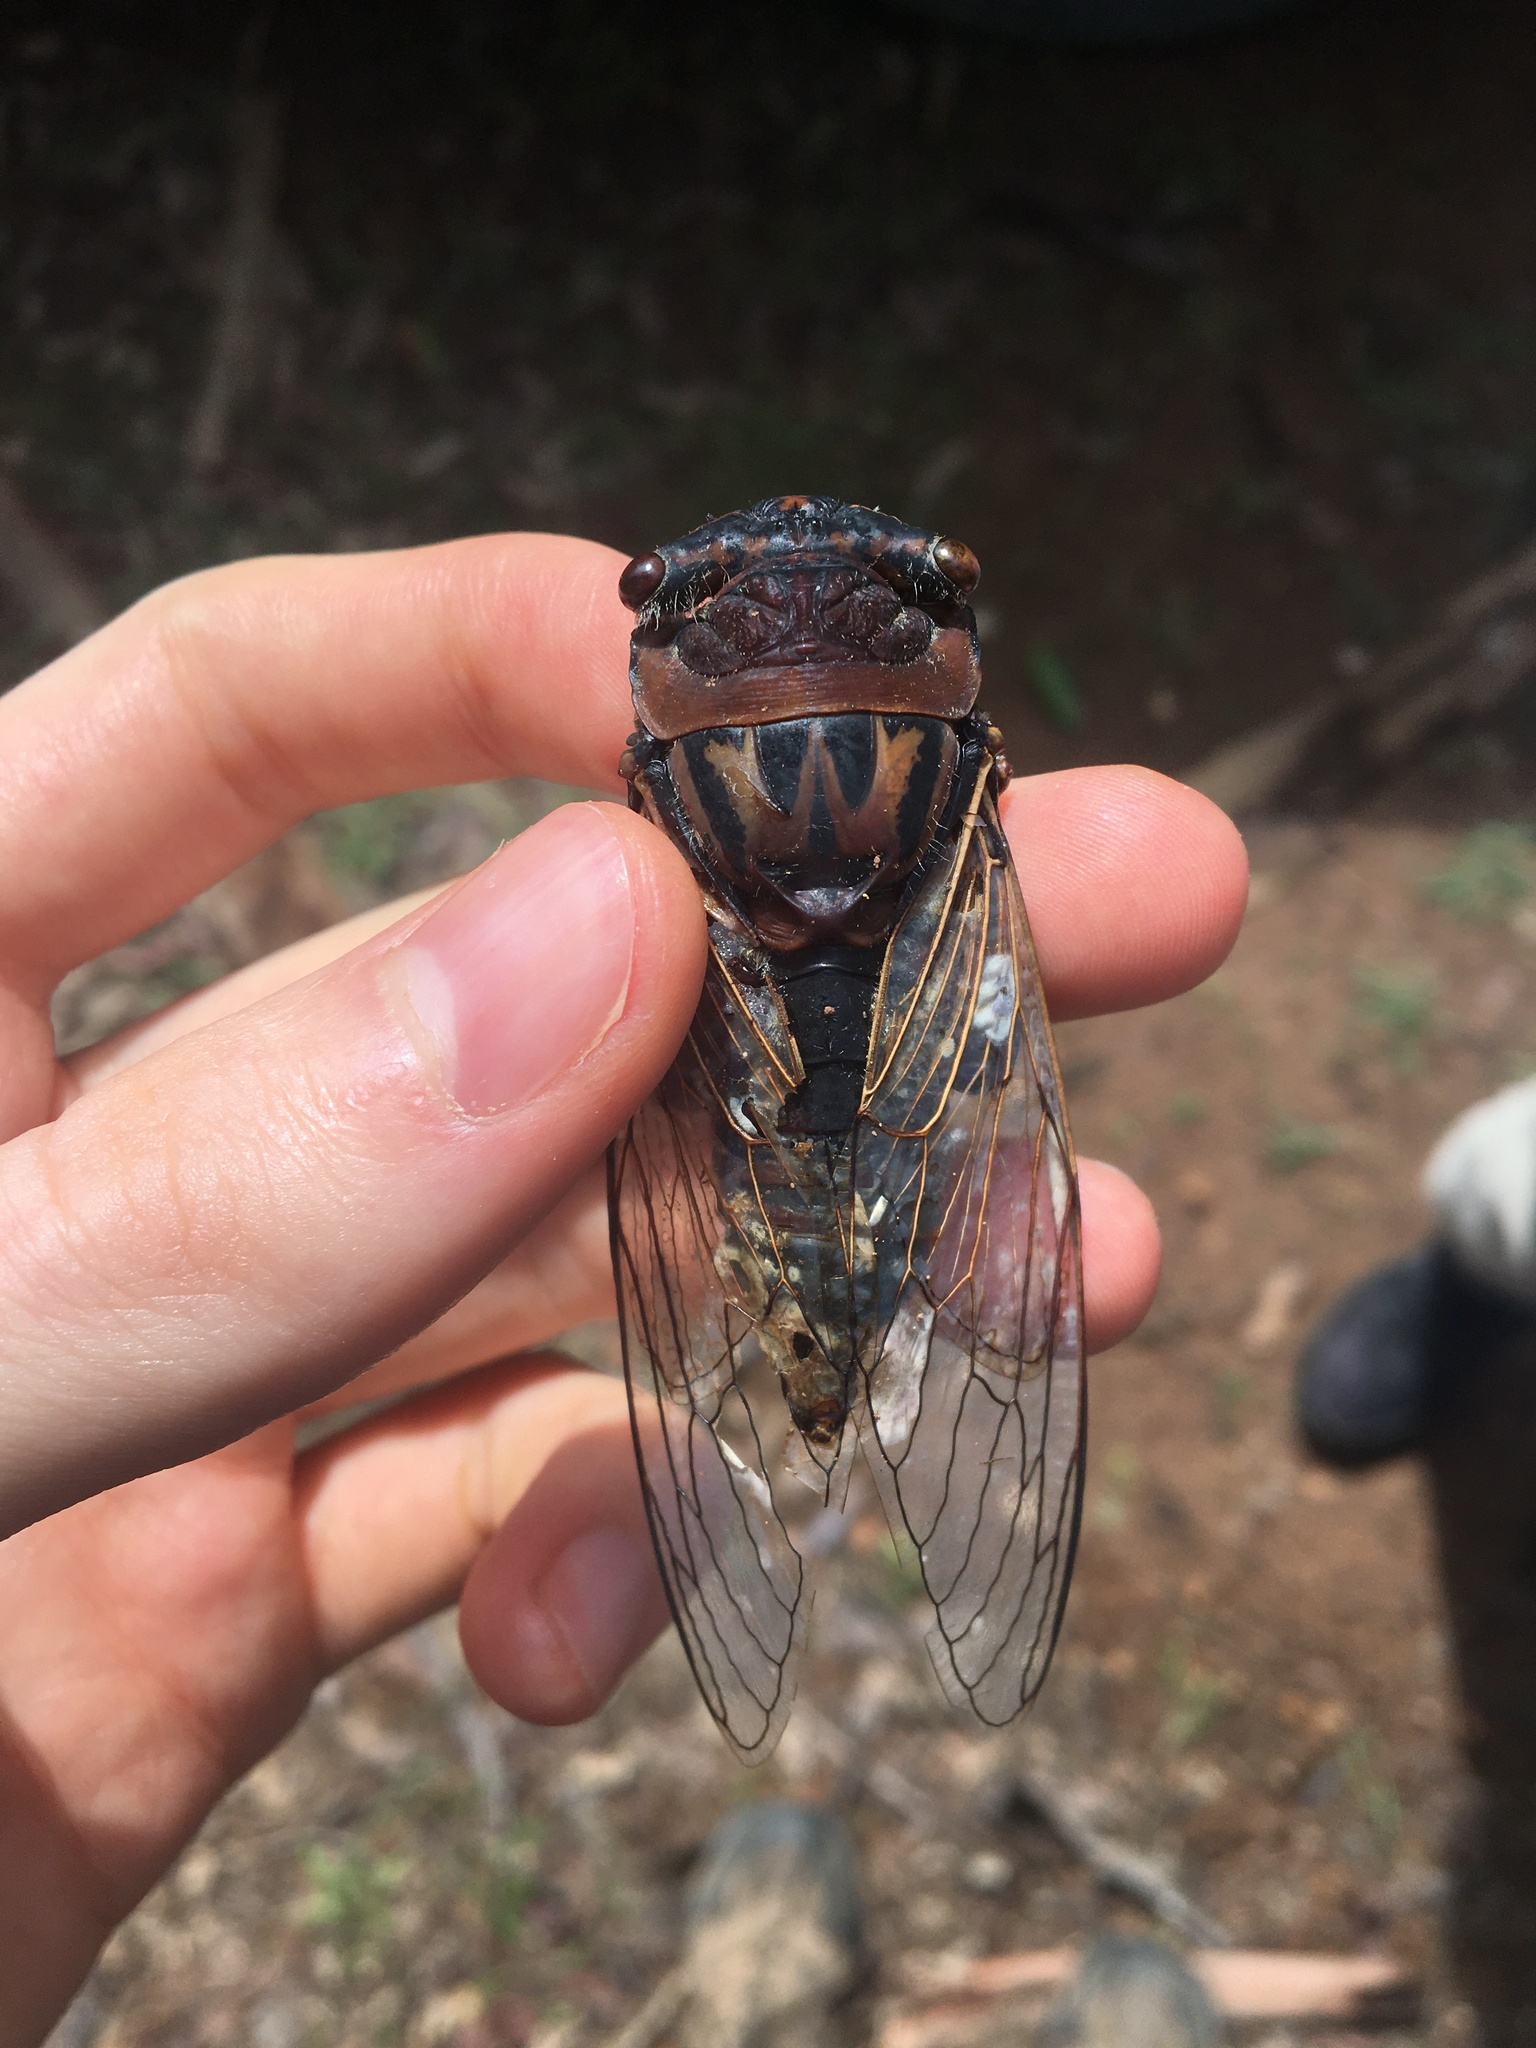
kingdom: Animalia
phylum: Arthropoda
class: Insecta
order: Hemiptera
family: Cicadidae
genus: Thopha
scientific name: Thopha saccata
